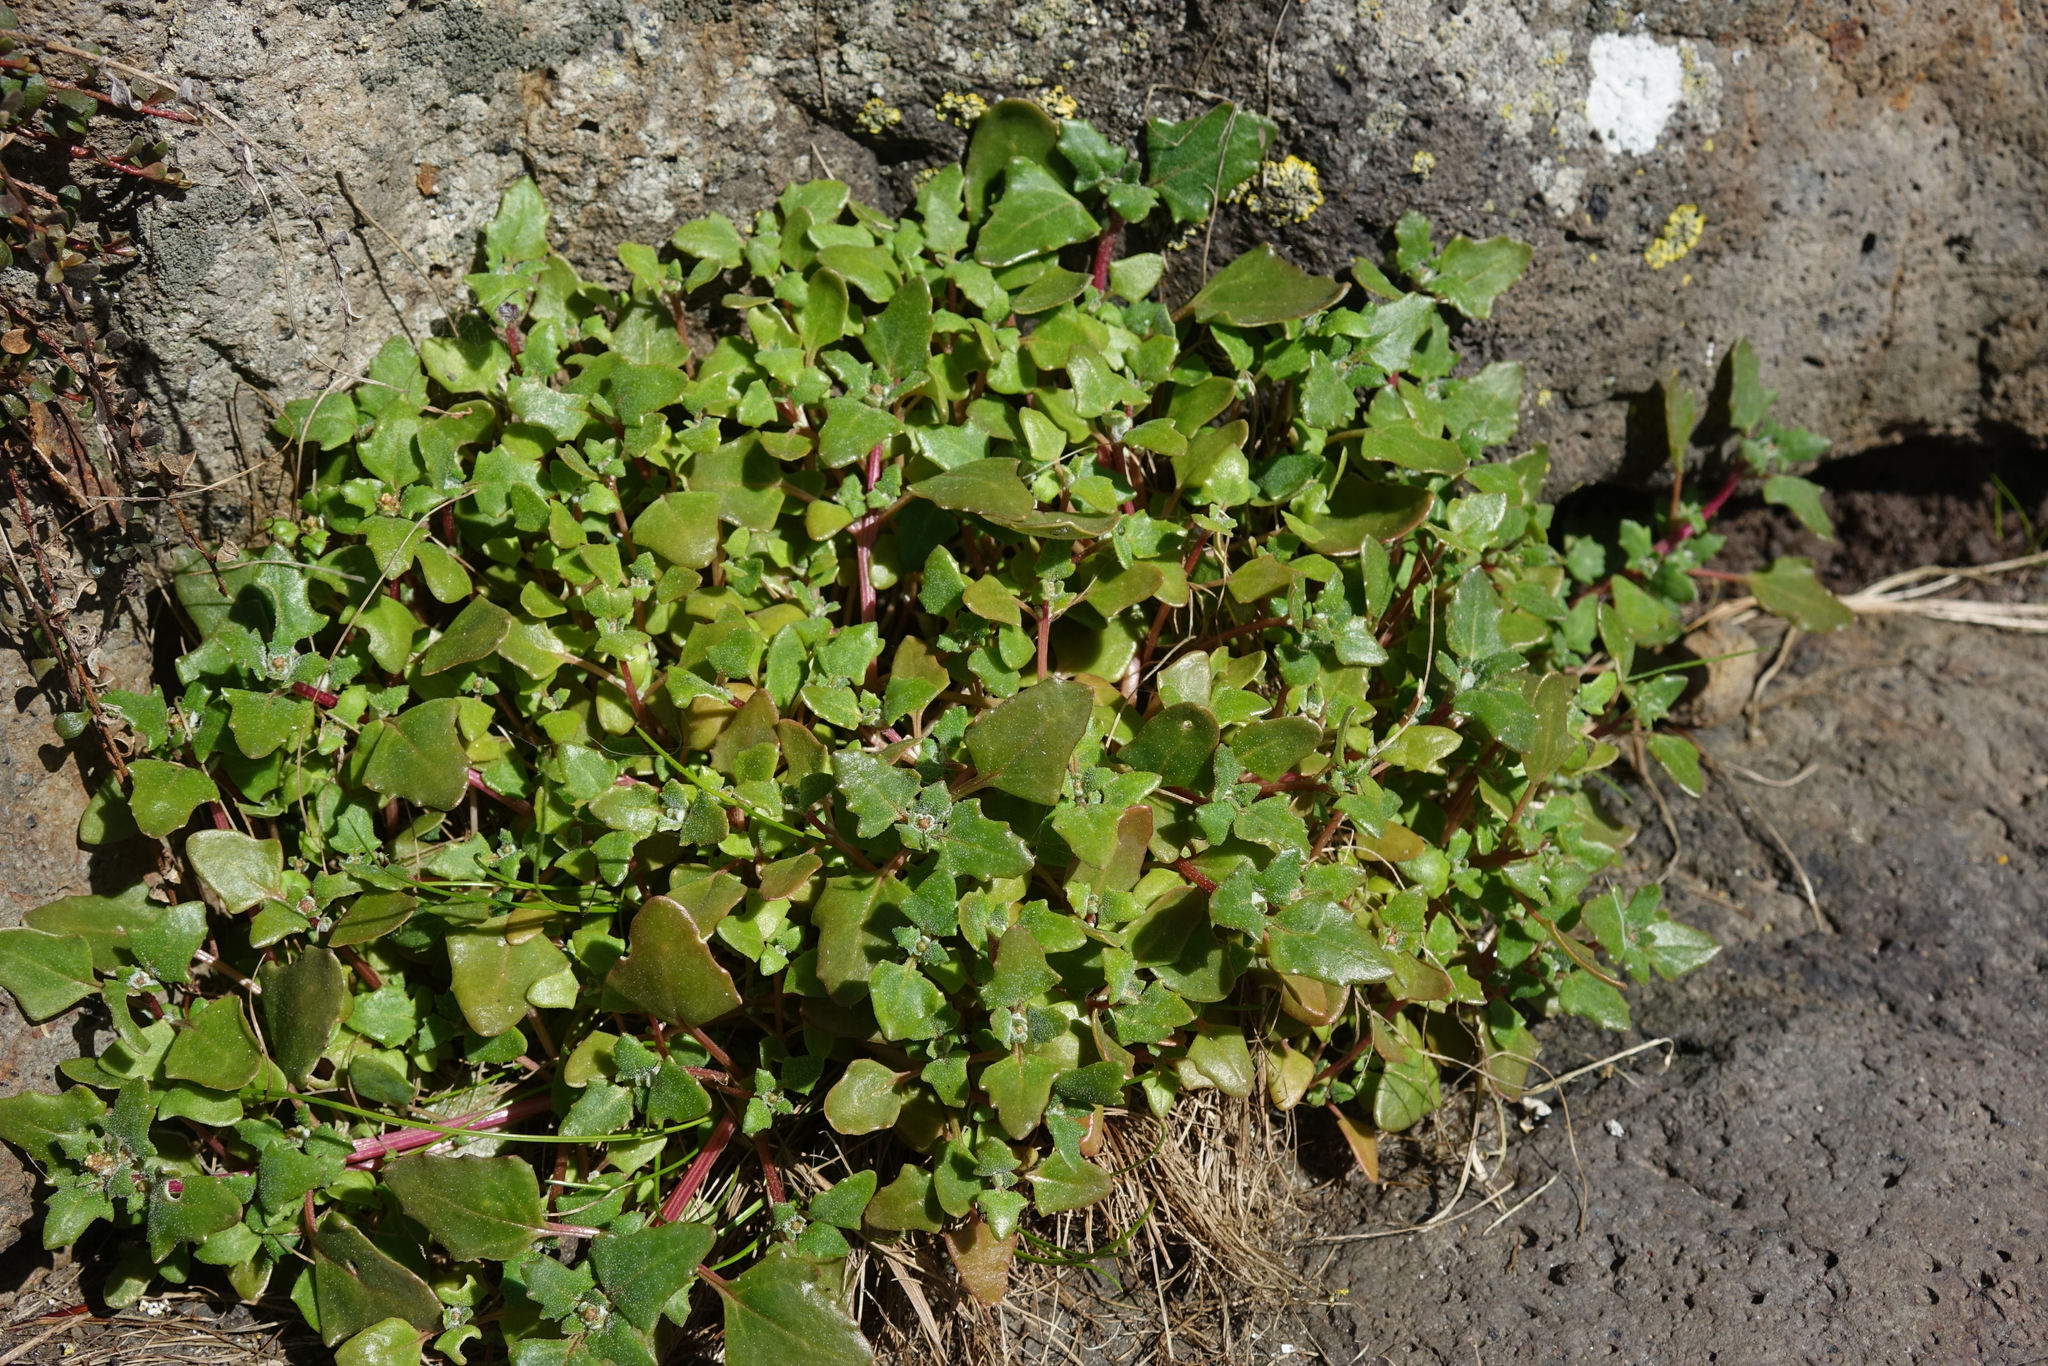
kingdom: Plantae
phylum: Tracheophyta
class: Magnoliopsida
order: Caryophyllales
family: Amaranthaceae
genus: Oxybasis
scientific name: Oxybasis ambigua
